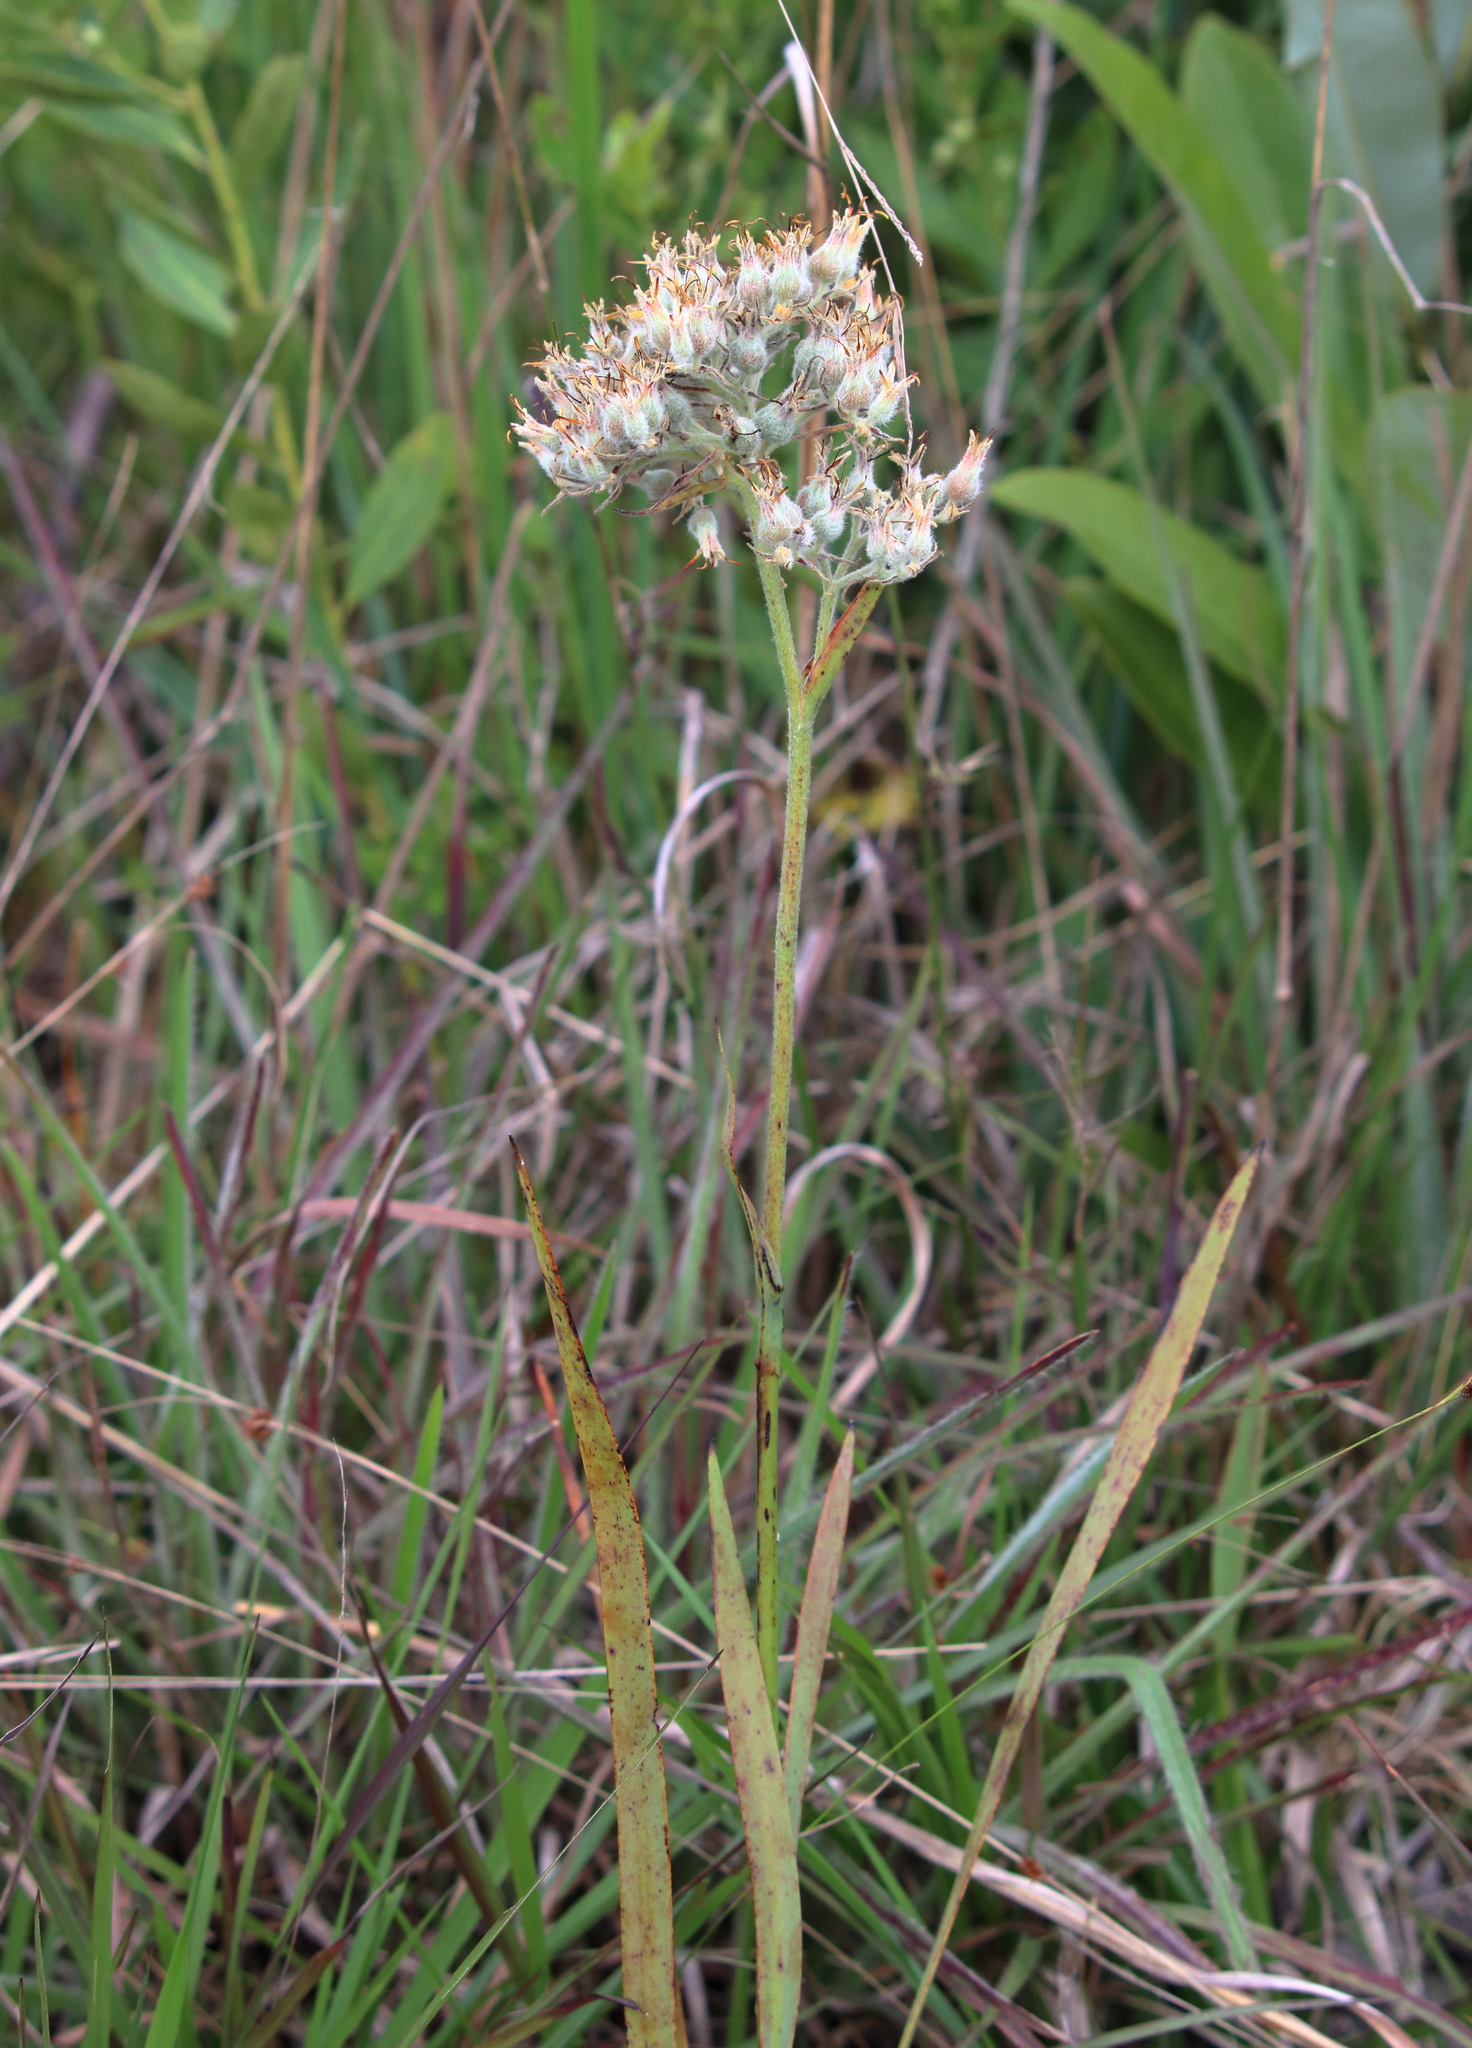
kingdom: Plantae
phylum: Tracheophyta
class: Liliopsida
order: Commelinales
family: Haemodoraceae
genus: Lachnanthes
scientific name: Lachnanthes caroliana
